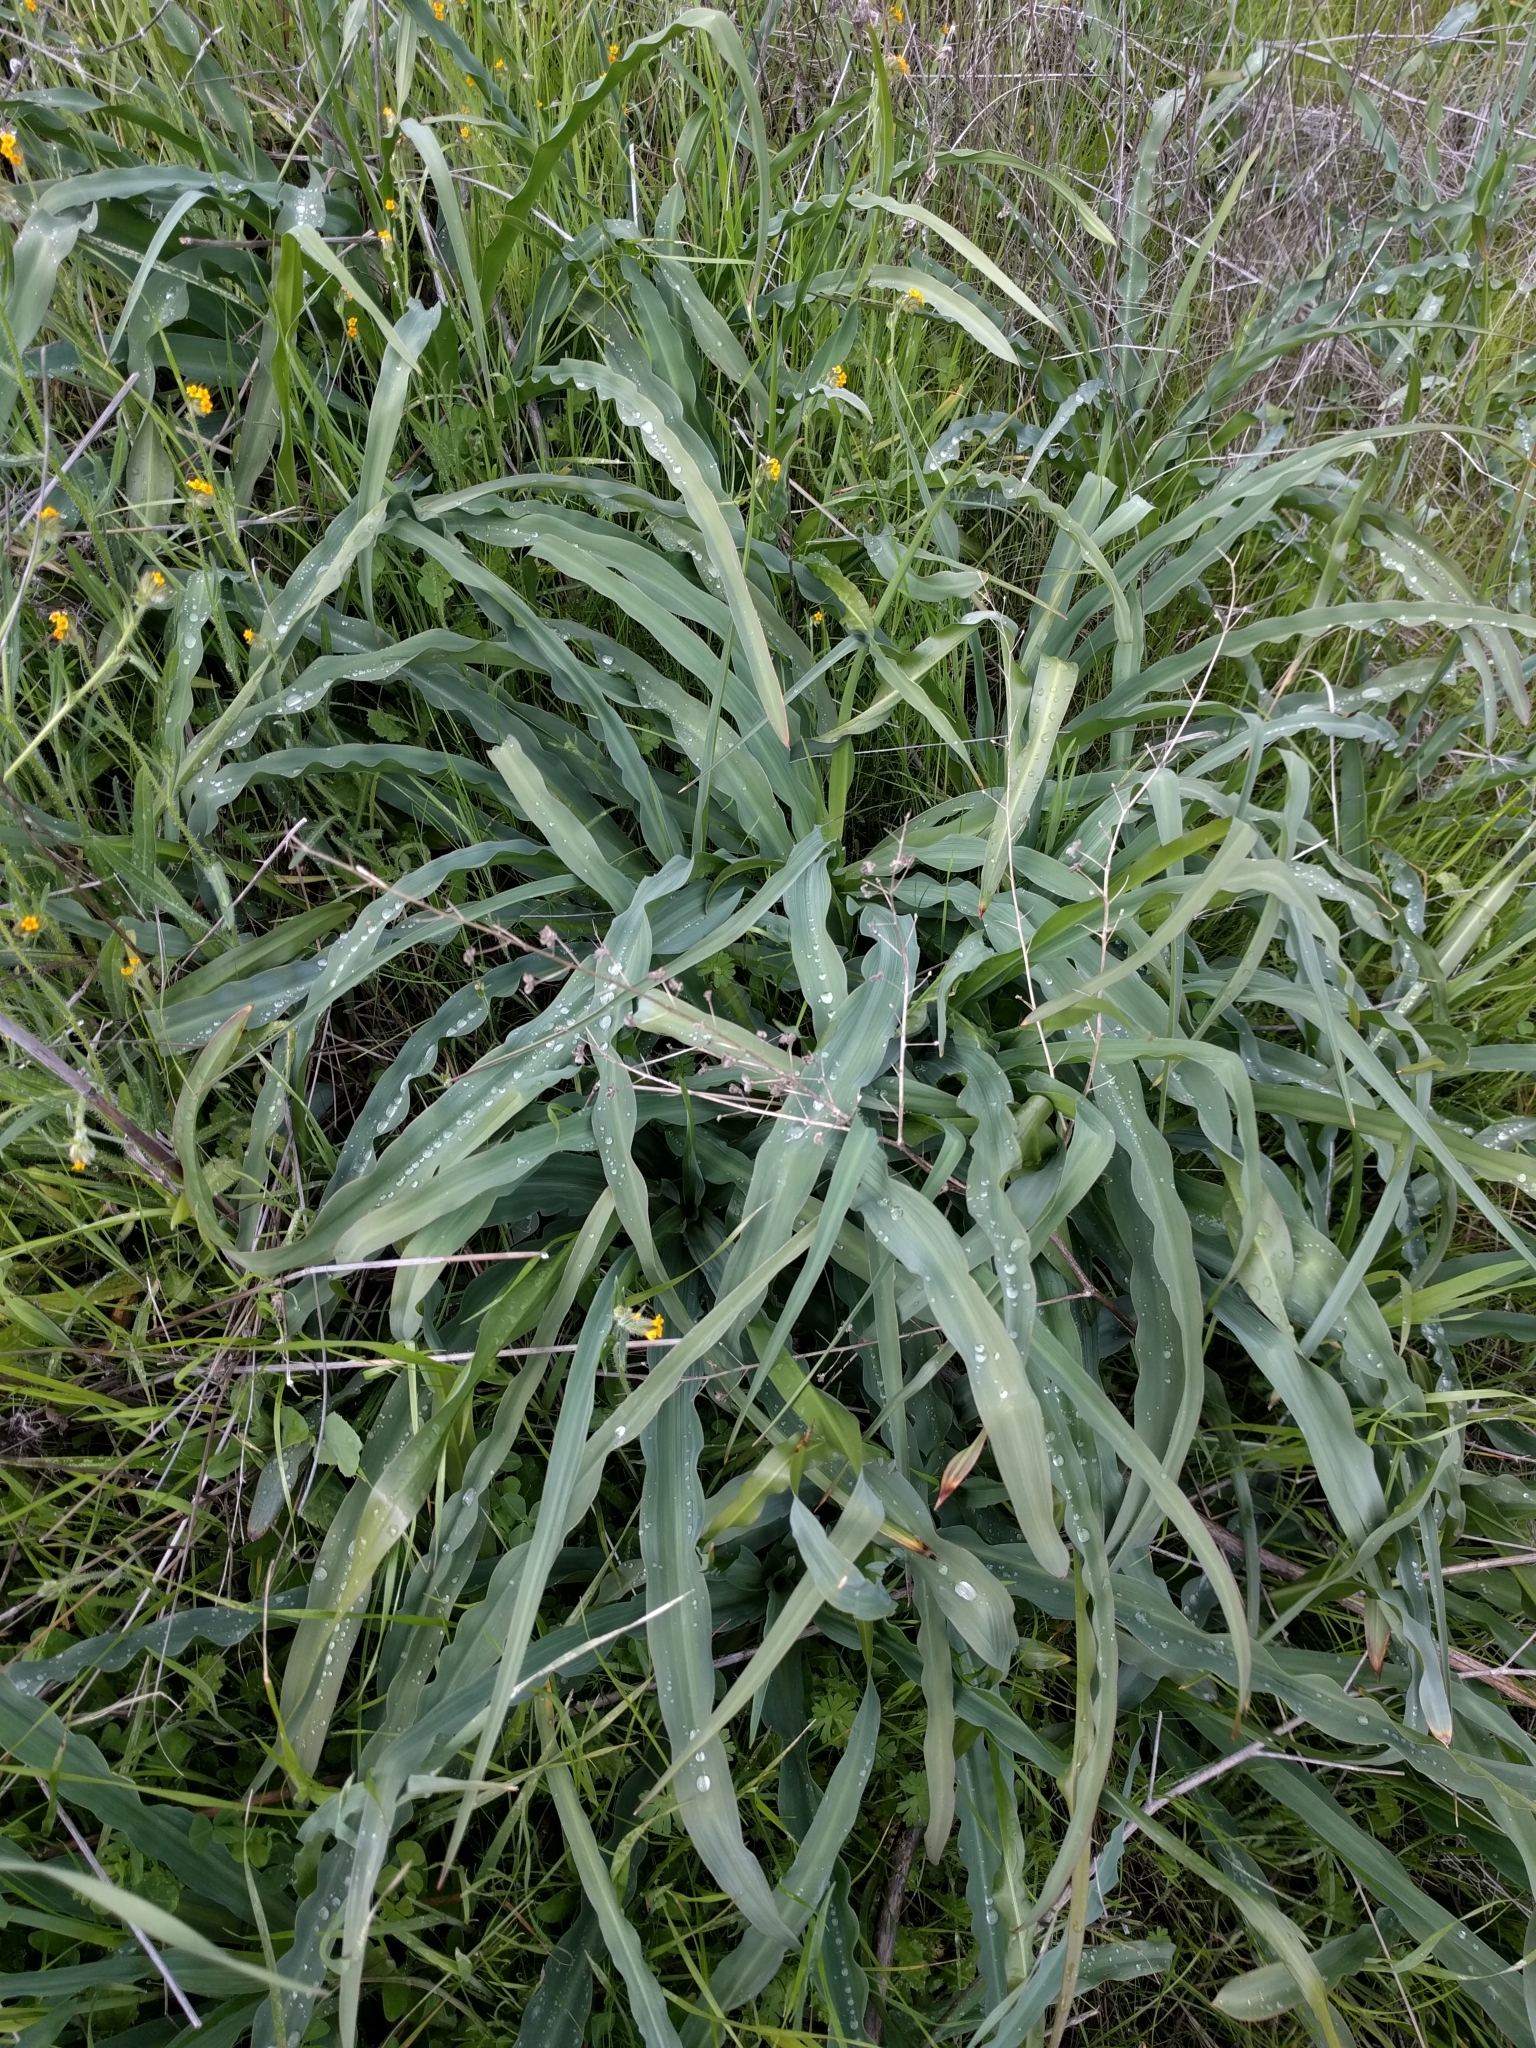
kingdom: Plantae
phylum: Tracheophyta
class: Liliopsida
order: Asparagales
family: Asparagaceae
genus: Chlorogalum
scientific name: Chlorogalum pomeridianum
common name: Amole
